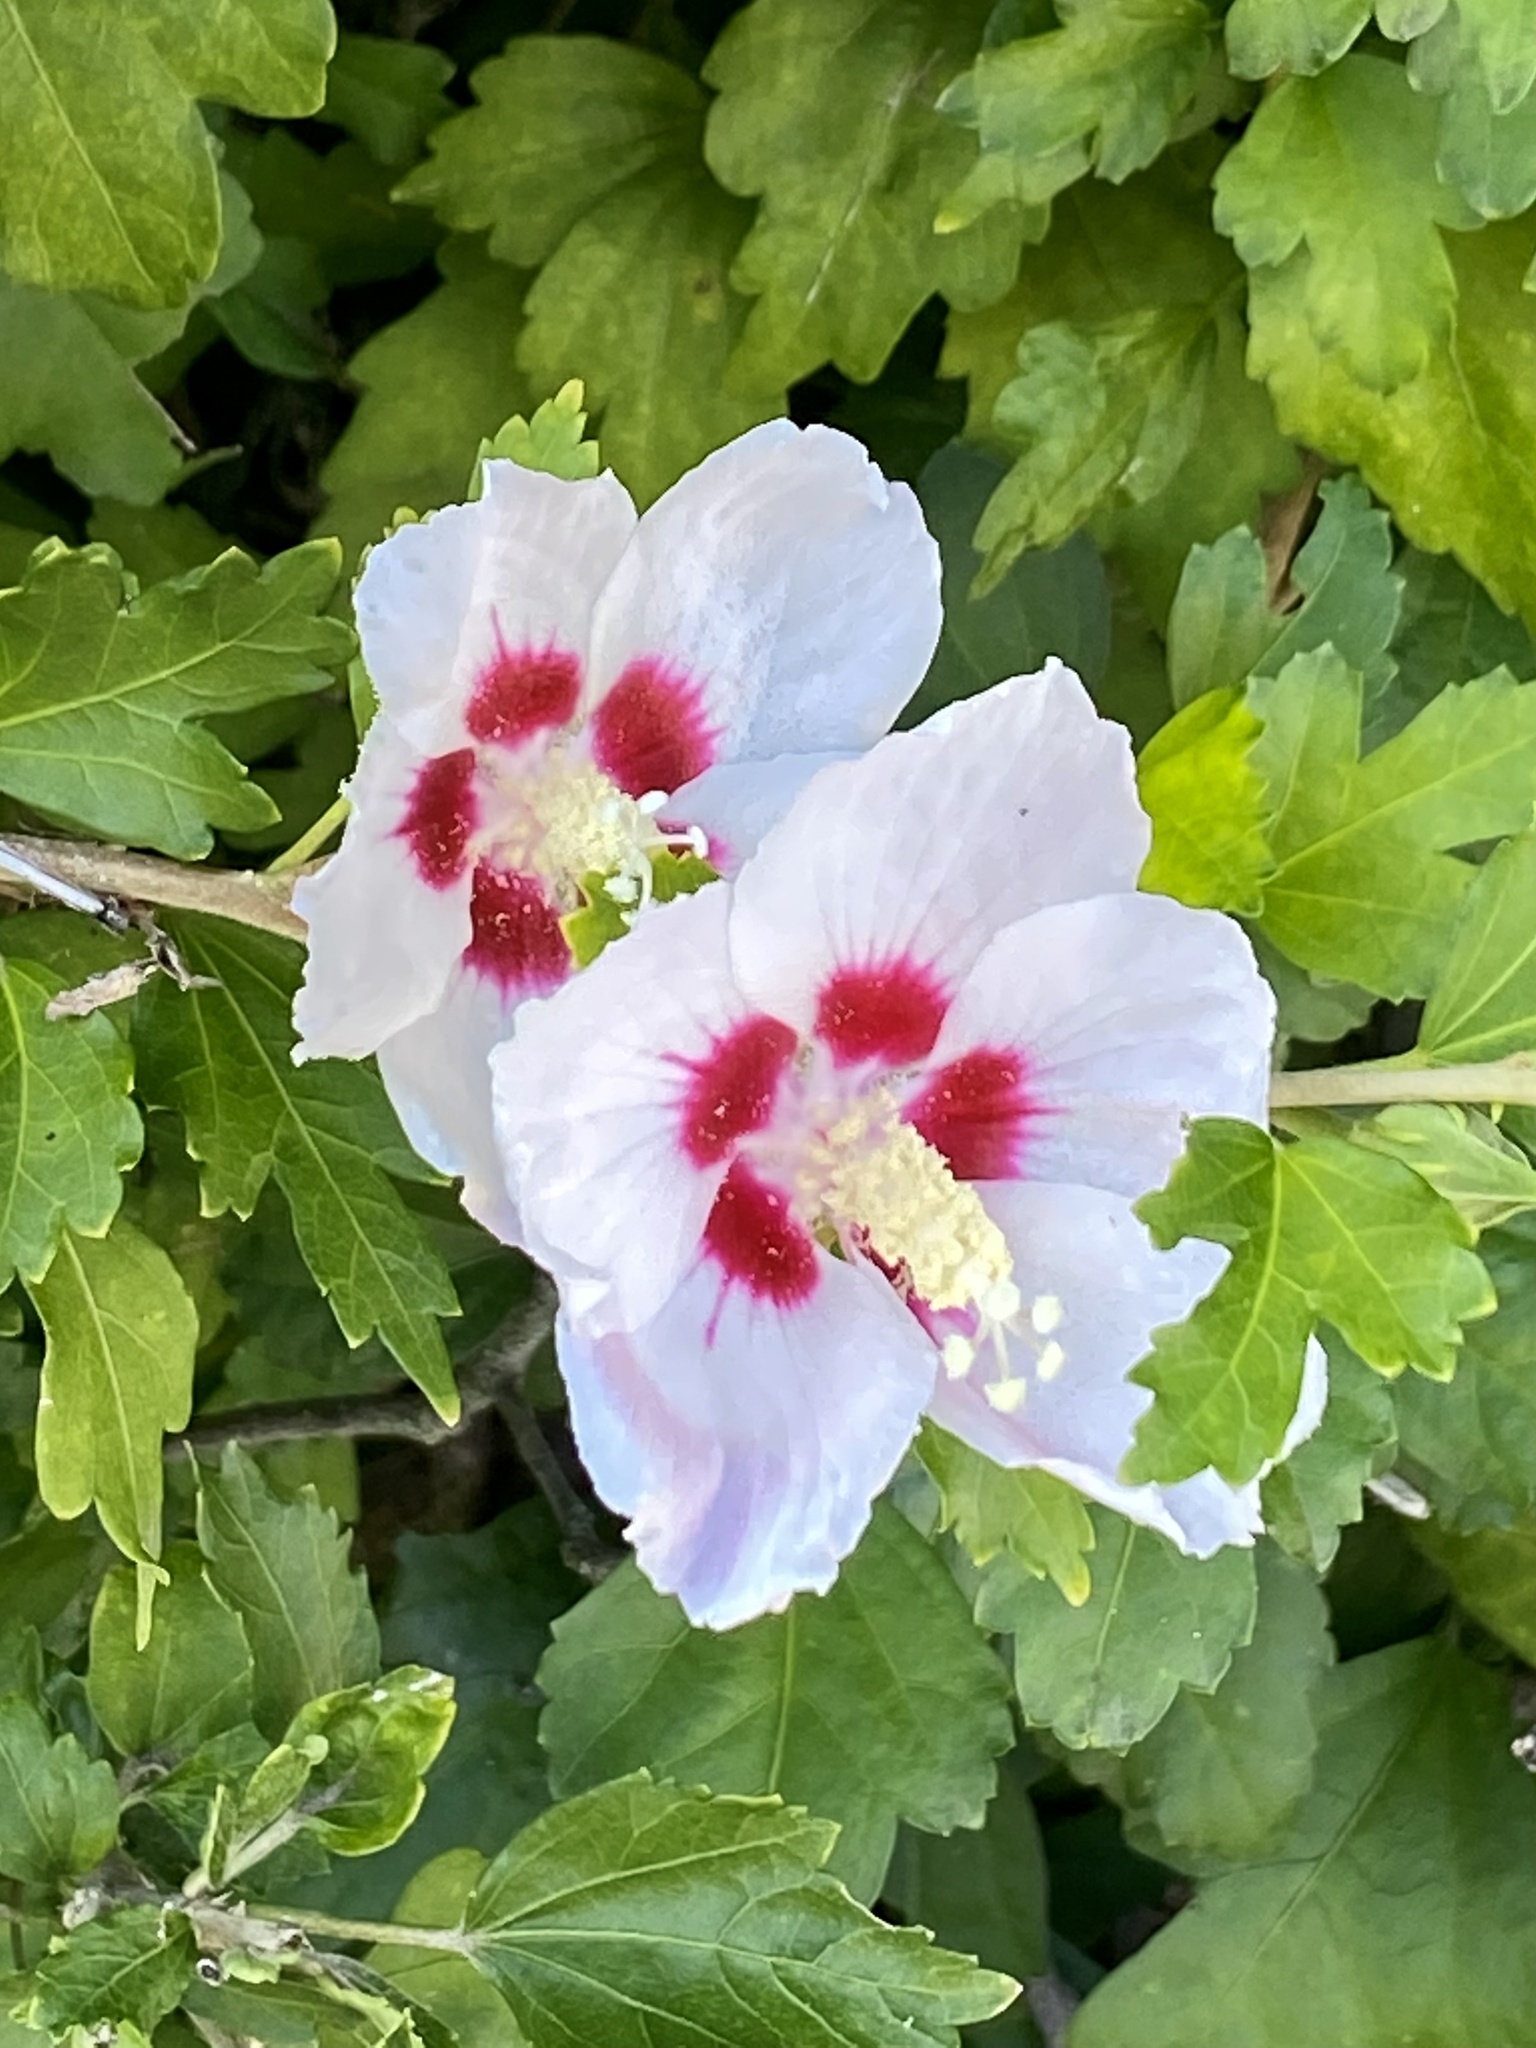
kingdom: Plantae
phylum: Tracheophyta
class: Magnoliopsida
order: Malvales
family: Malvaceae
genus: Hibiscus
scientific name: Hibiscus syriacus
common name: Syrian ketmia
